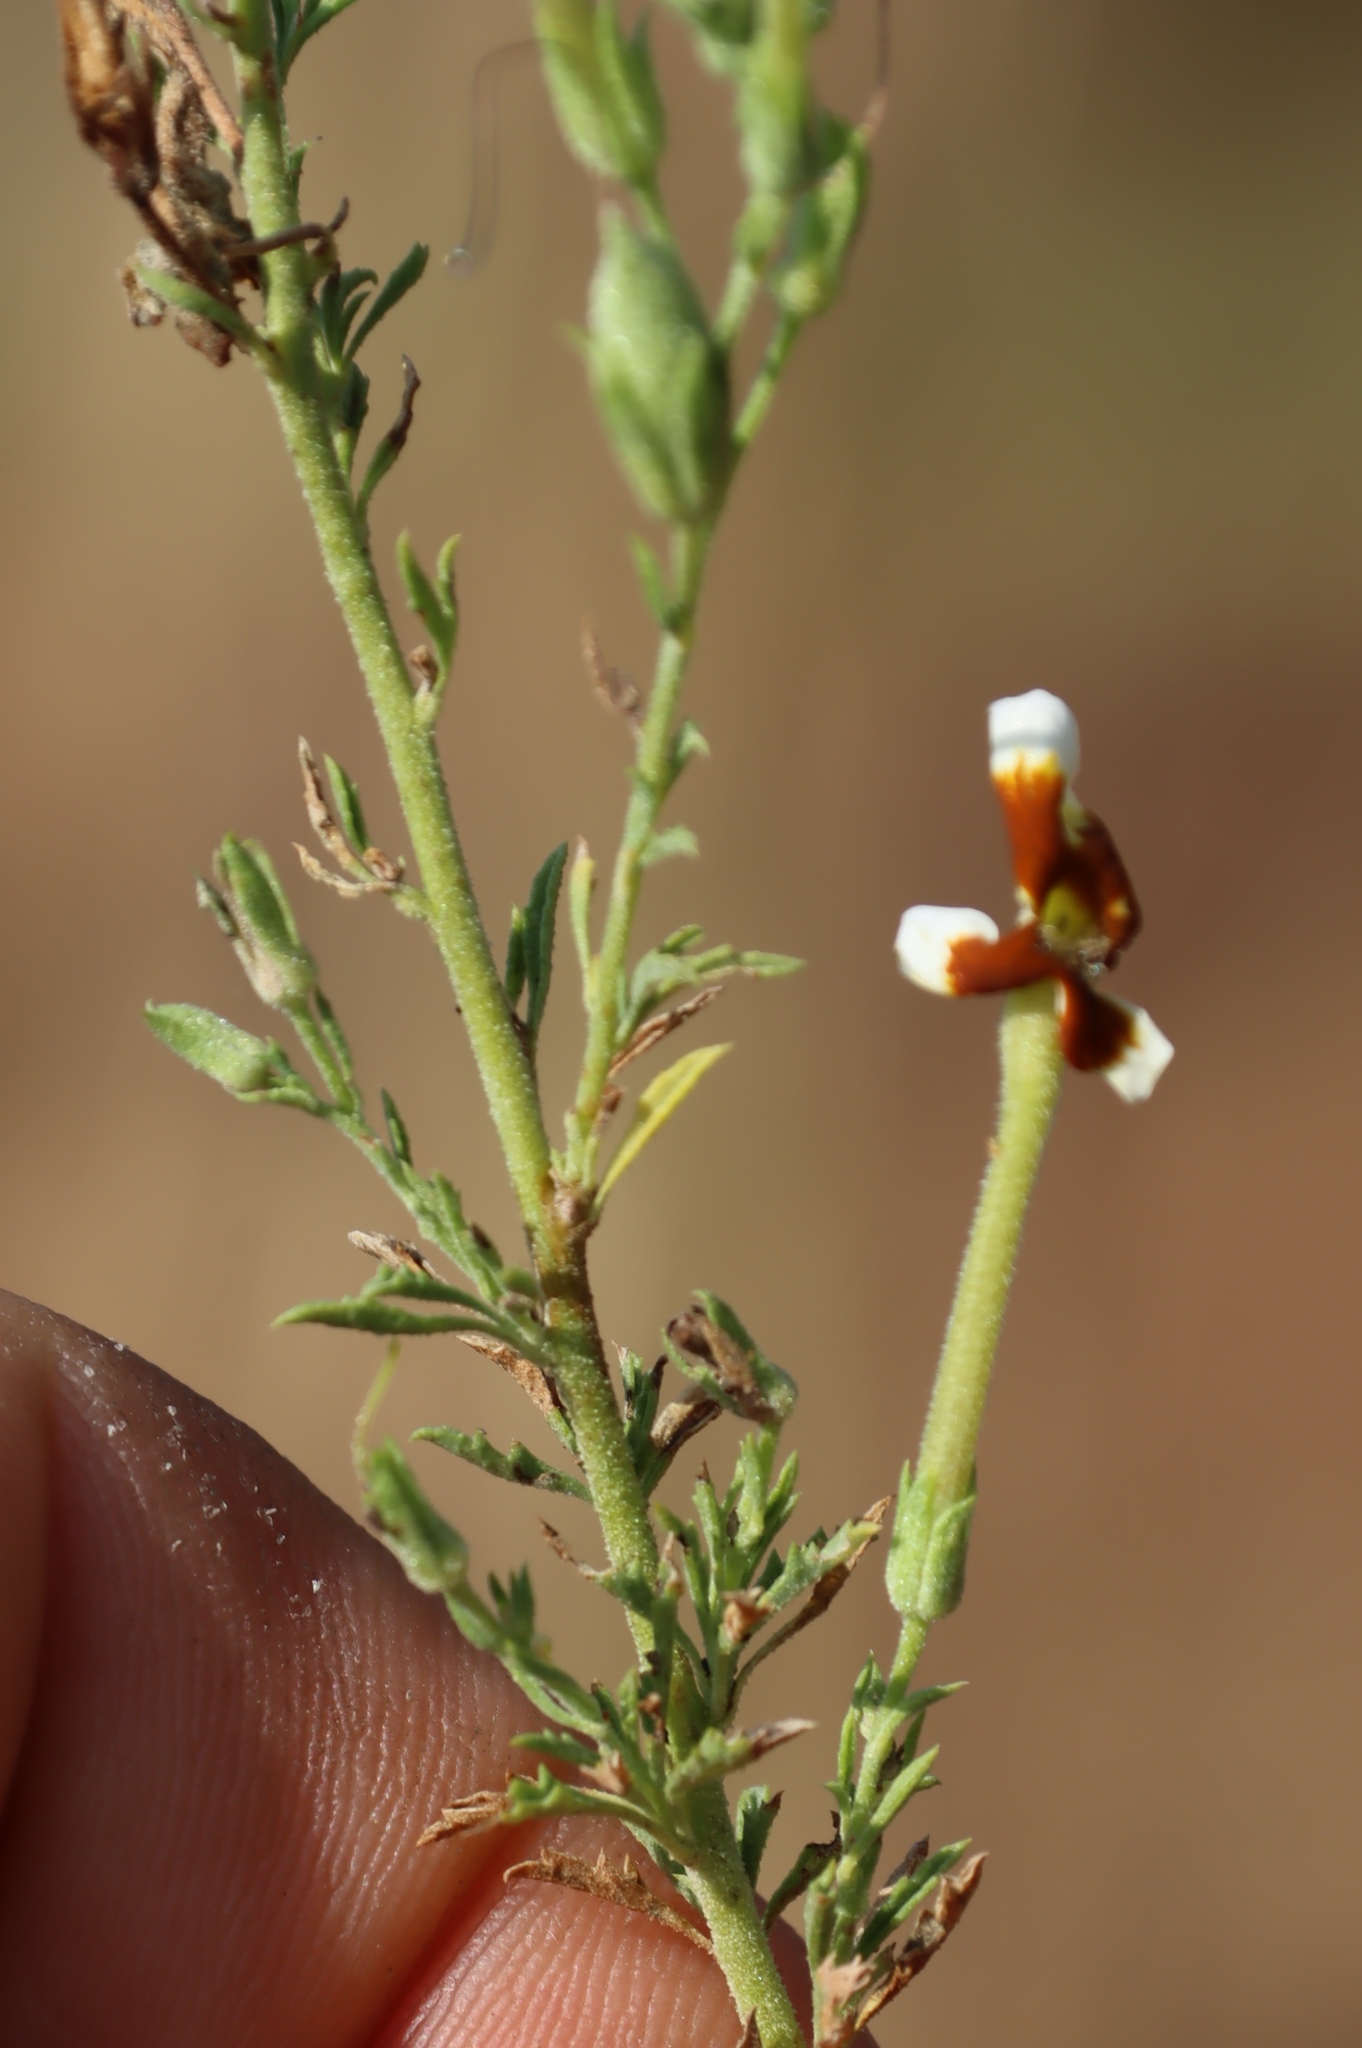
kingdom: Plantae
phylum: Tracheophyta
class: Magnoliopsida
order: Lamiales
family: Scrophulariaceae
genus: Jamesbrittenia
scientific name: Jamesbrittenia burkeana
